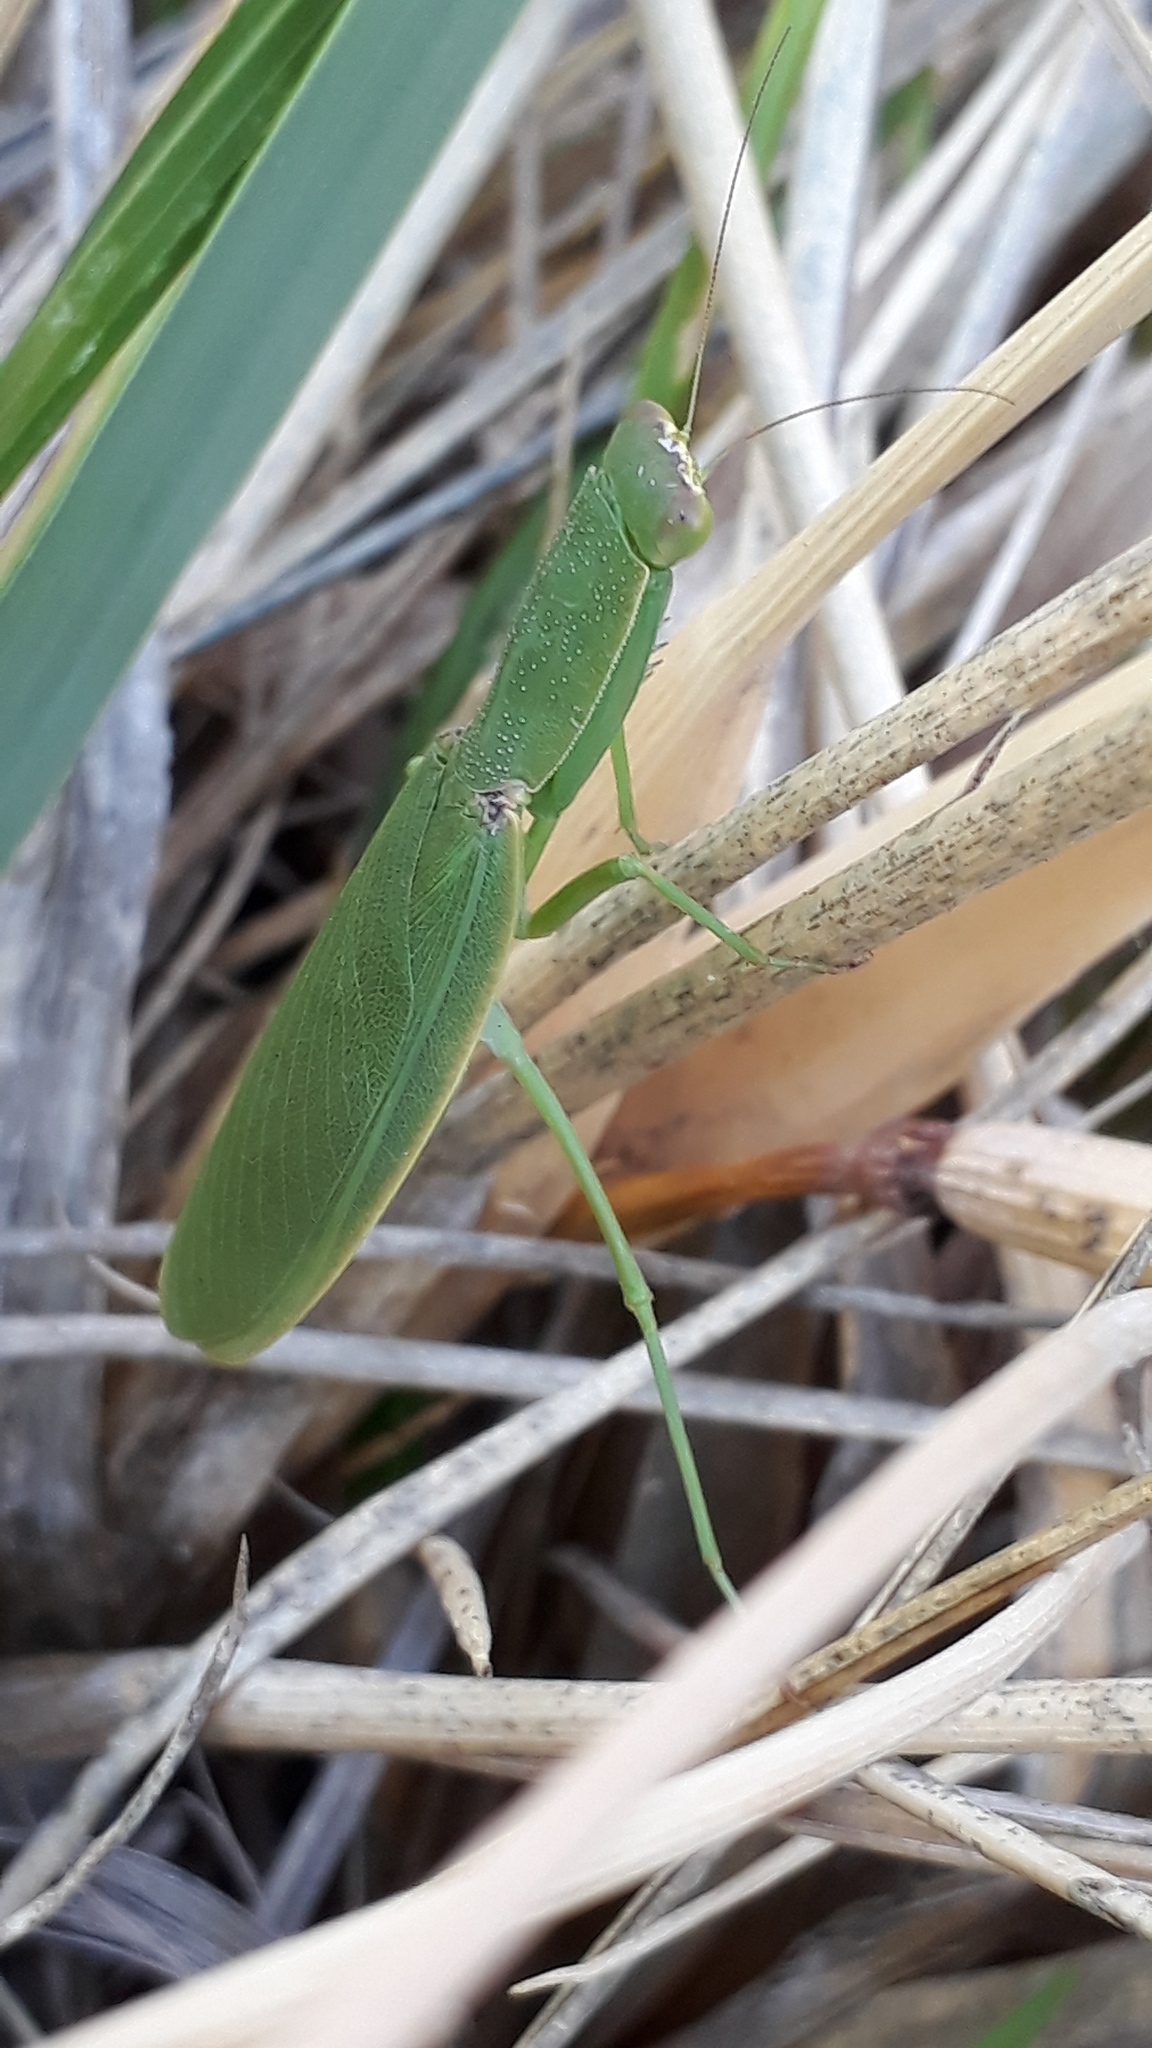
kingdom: Animalia
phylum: Arthropoda
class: Insecta
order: Mantodea
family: Mantidae
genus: Orthodera
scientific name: Orthodera novaezealandiae
